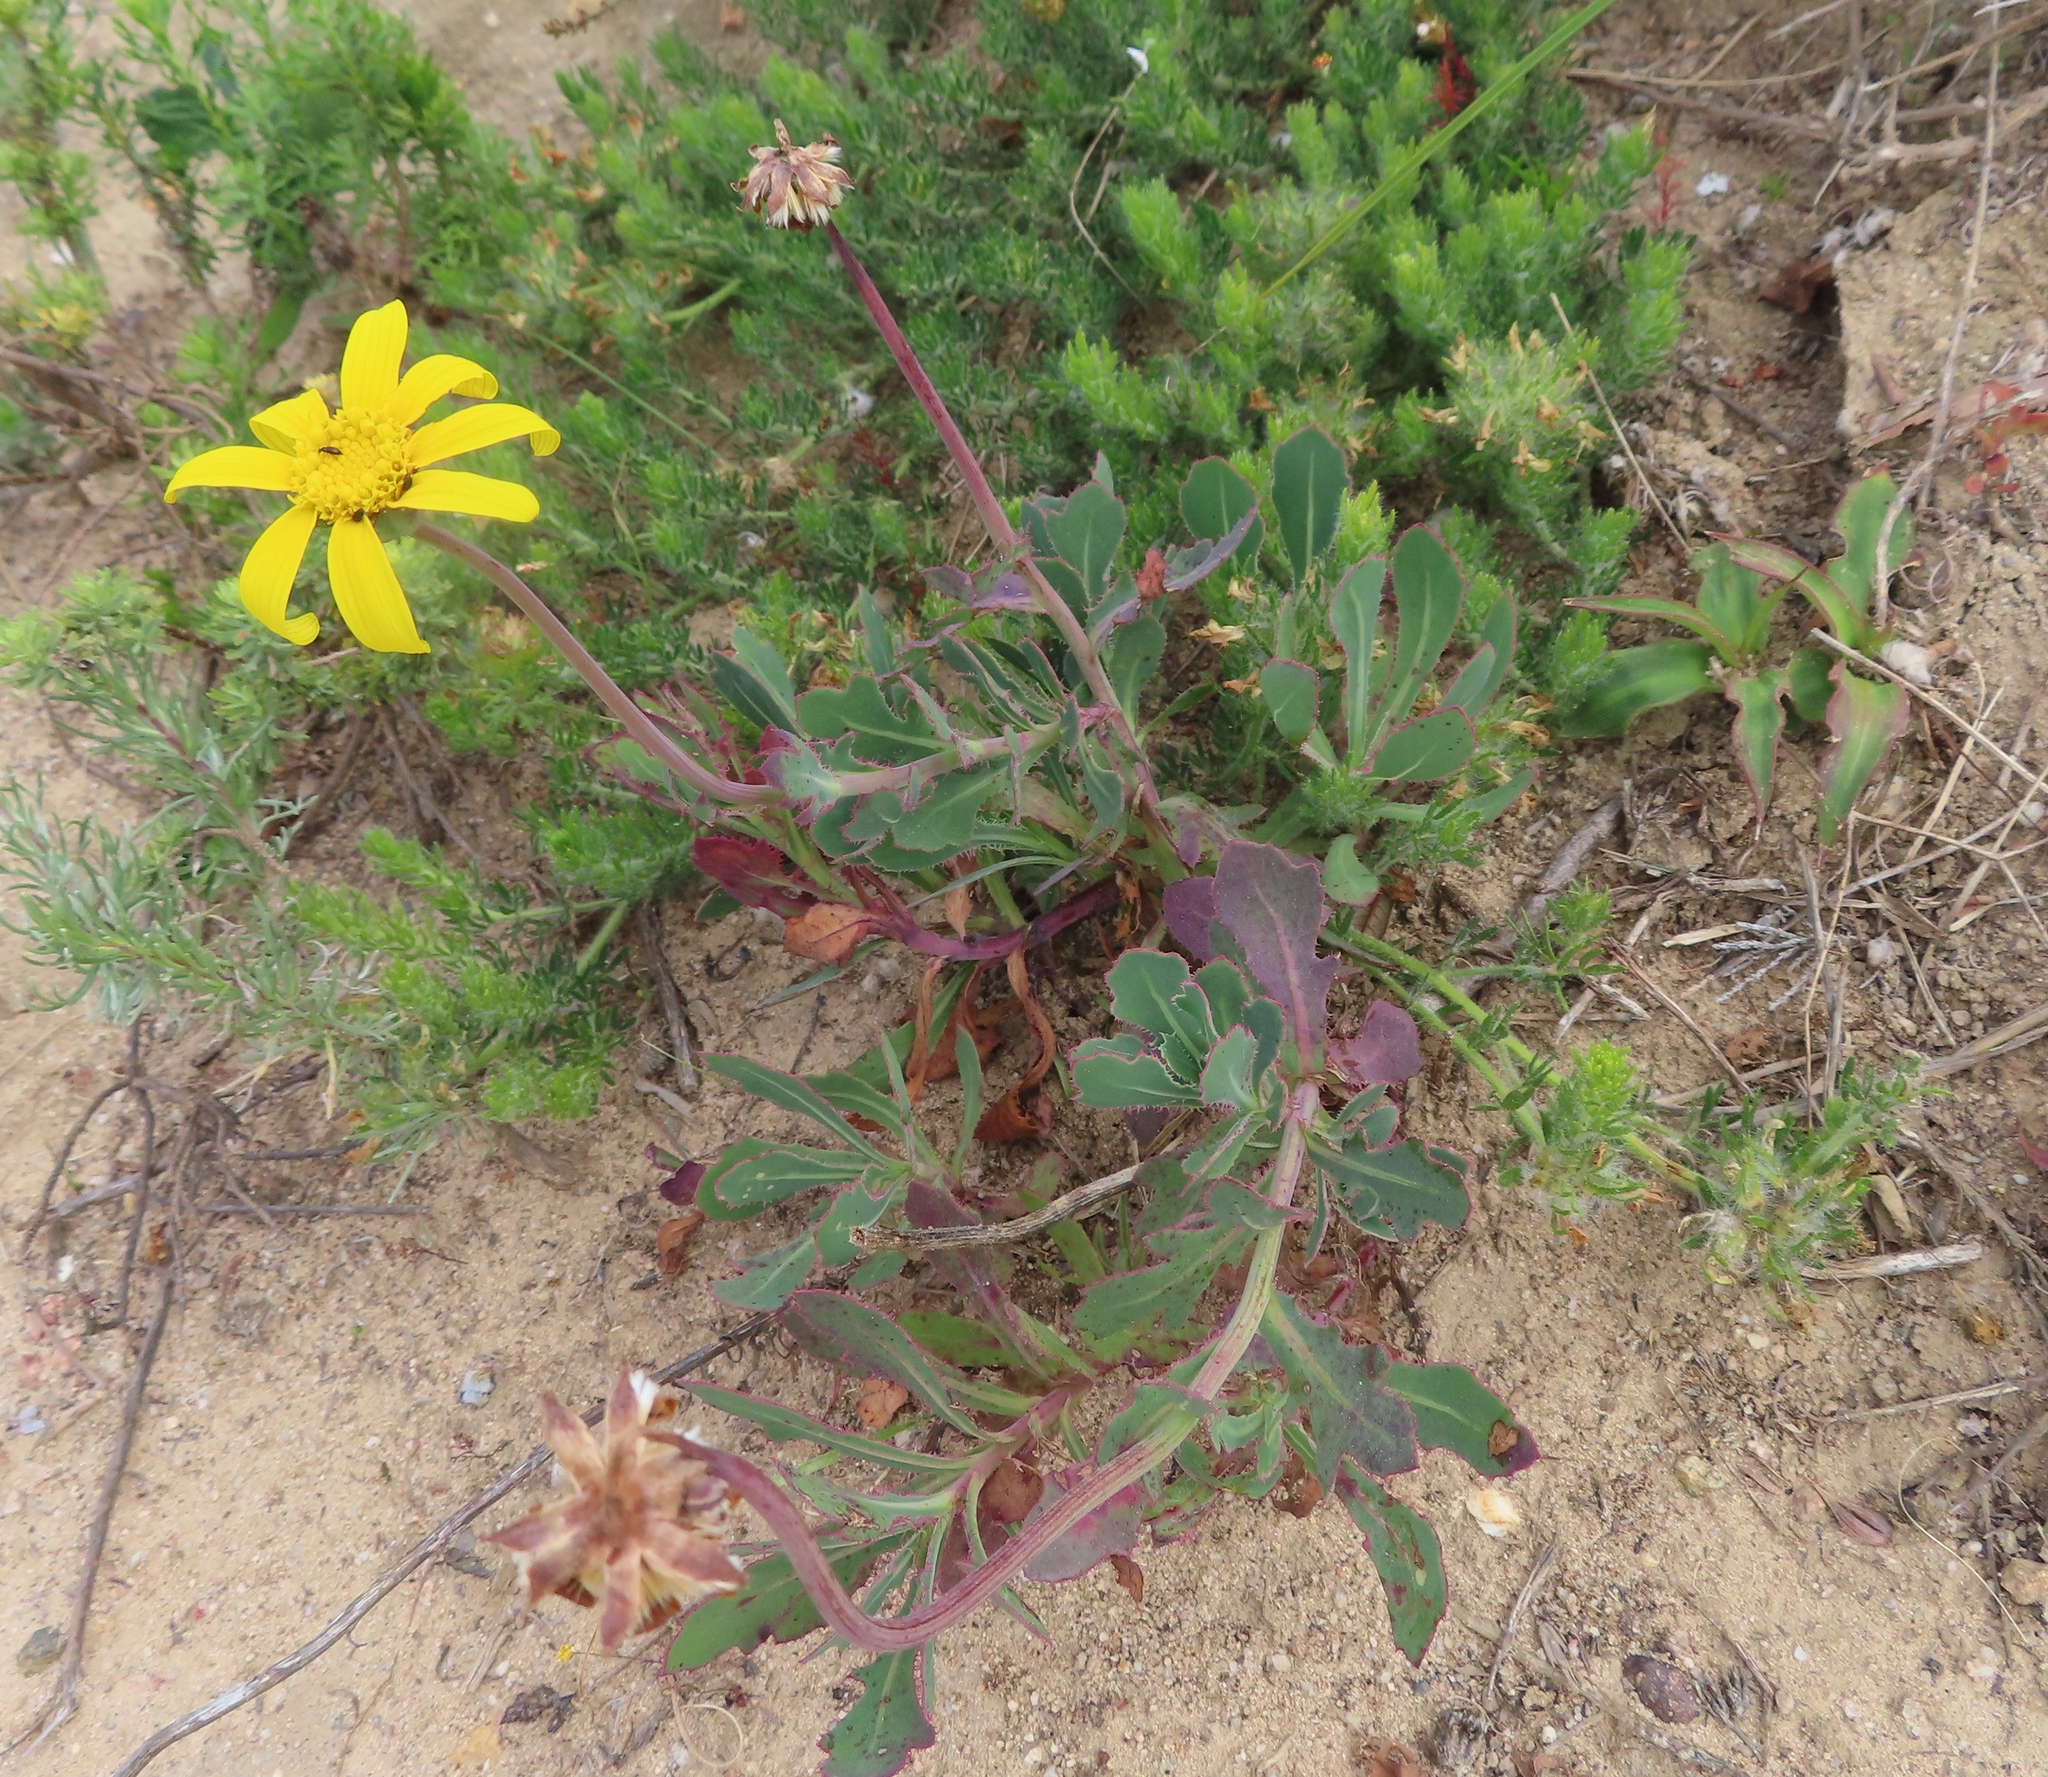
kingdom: Plantae
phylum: Tracheophyta
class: Magnoliopsida
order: Asterales
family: Asteraceae
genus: Othonna
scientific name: Othonna ciliata
